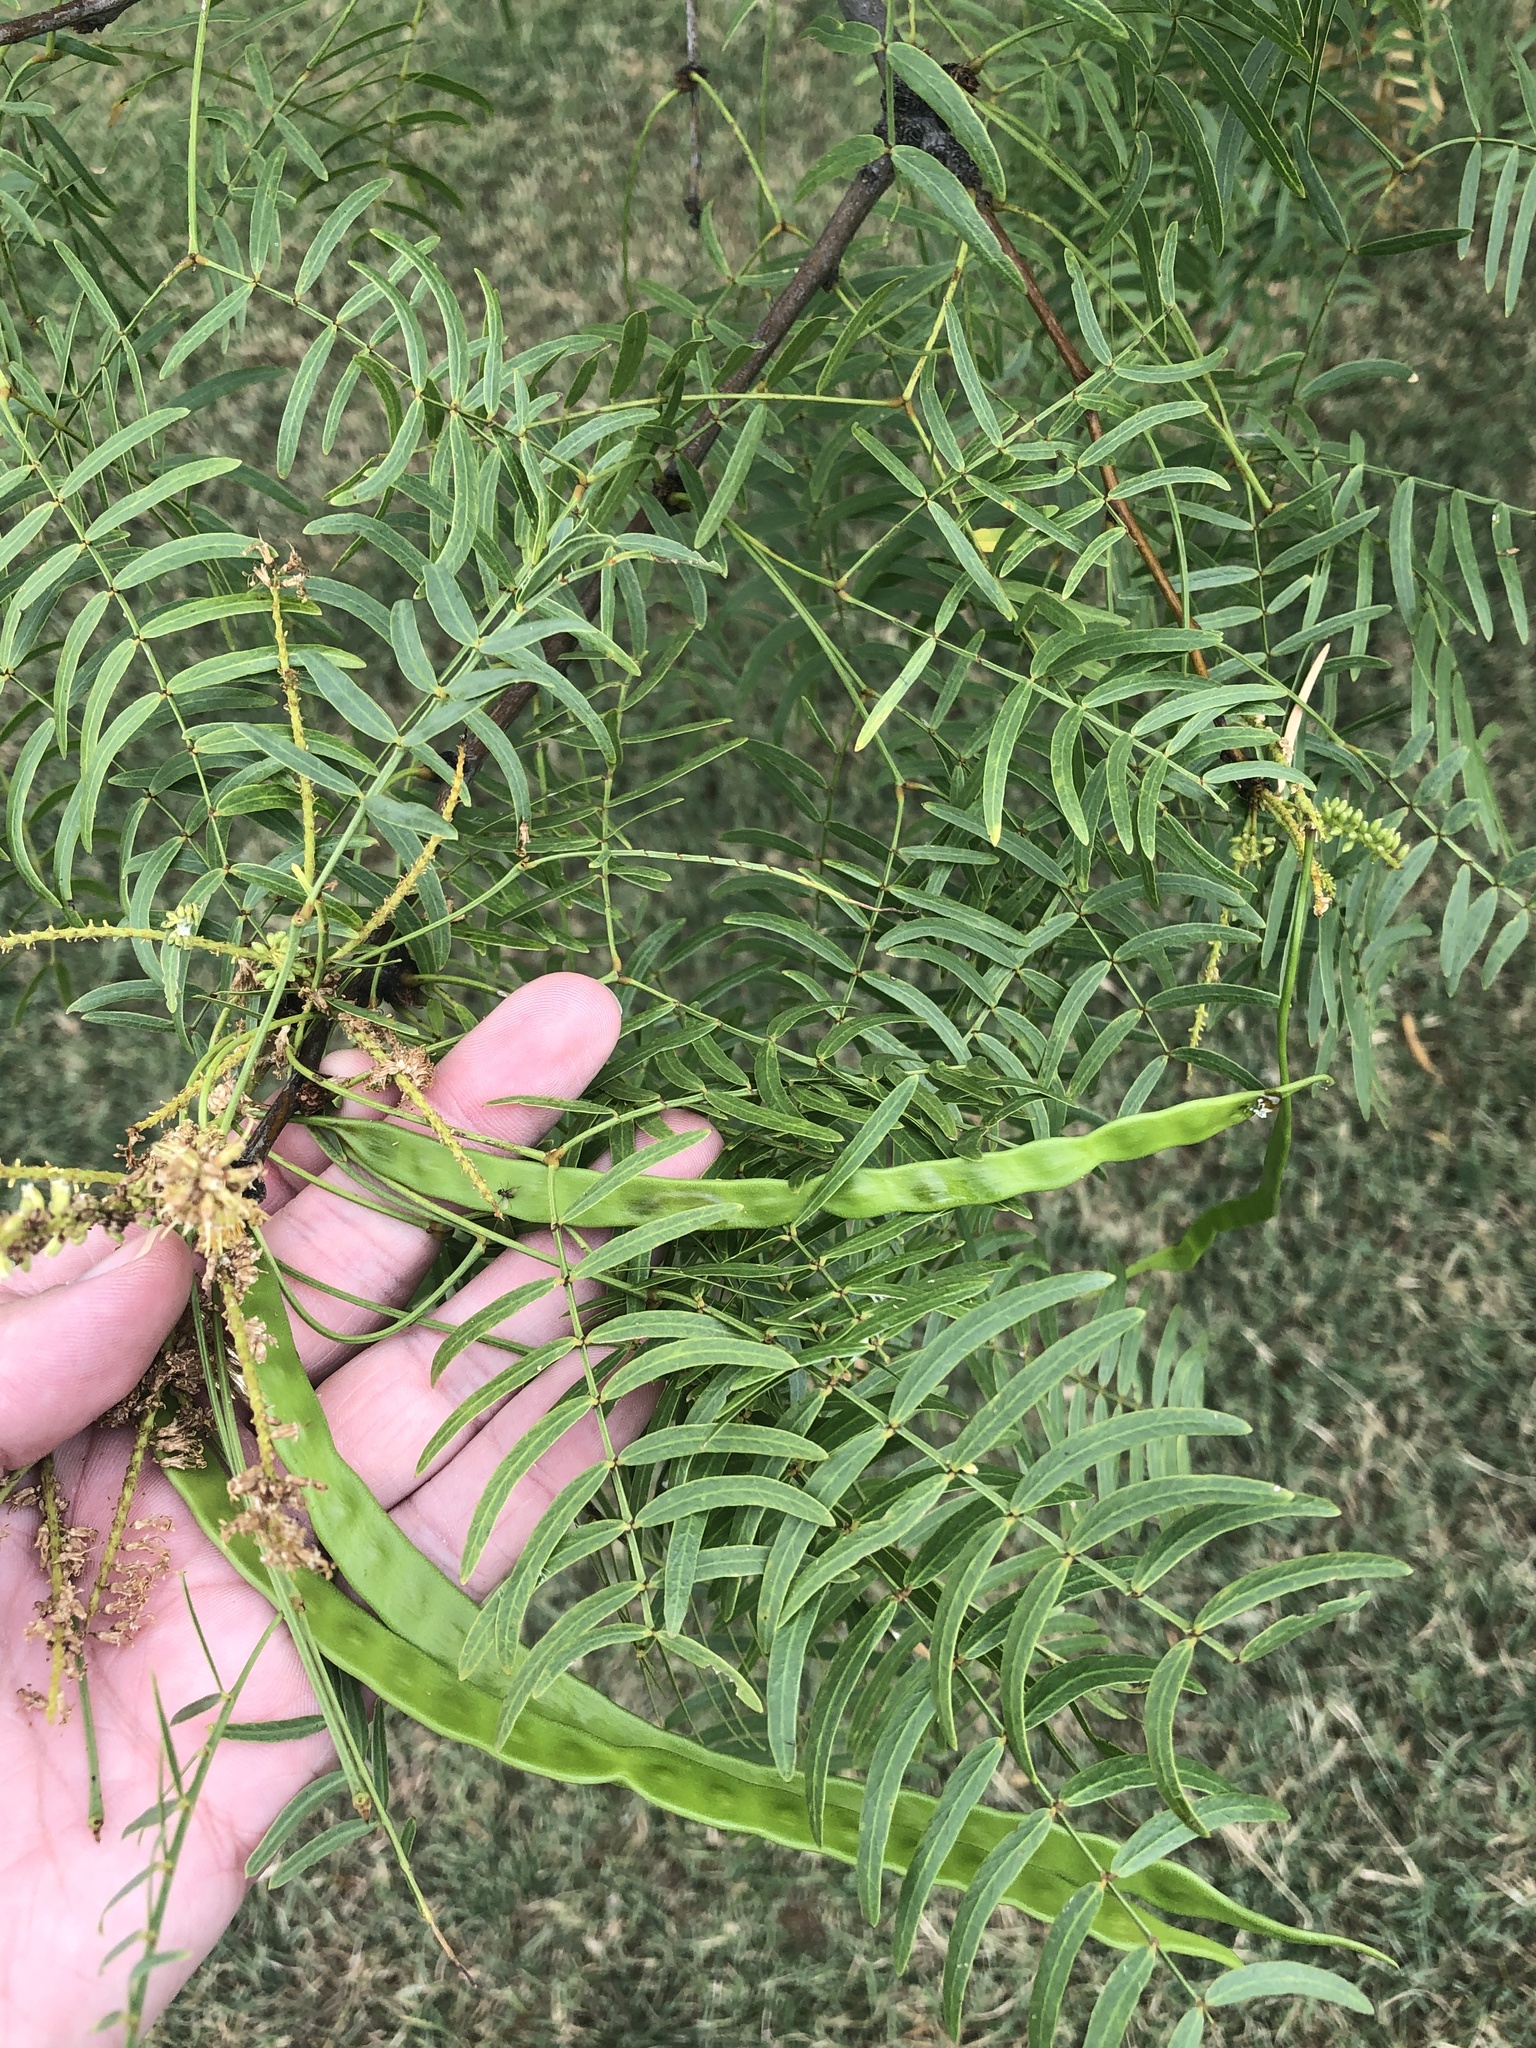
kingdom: Plantae
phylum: Tracheophyta
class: Magnoliopsida
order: Fabales
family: Fabaceae
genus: Prosopis
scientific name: Prosopis glandulosa
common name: Honey mesquite
